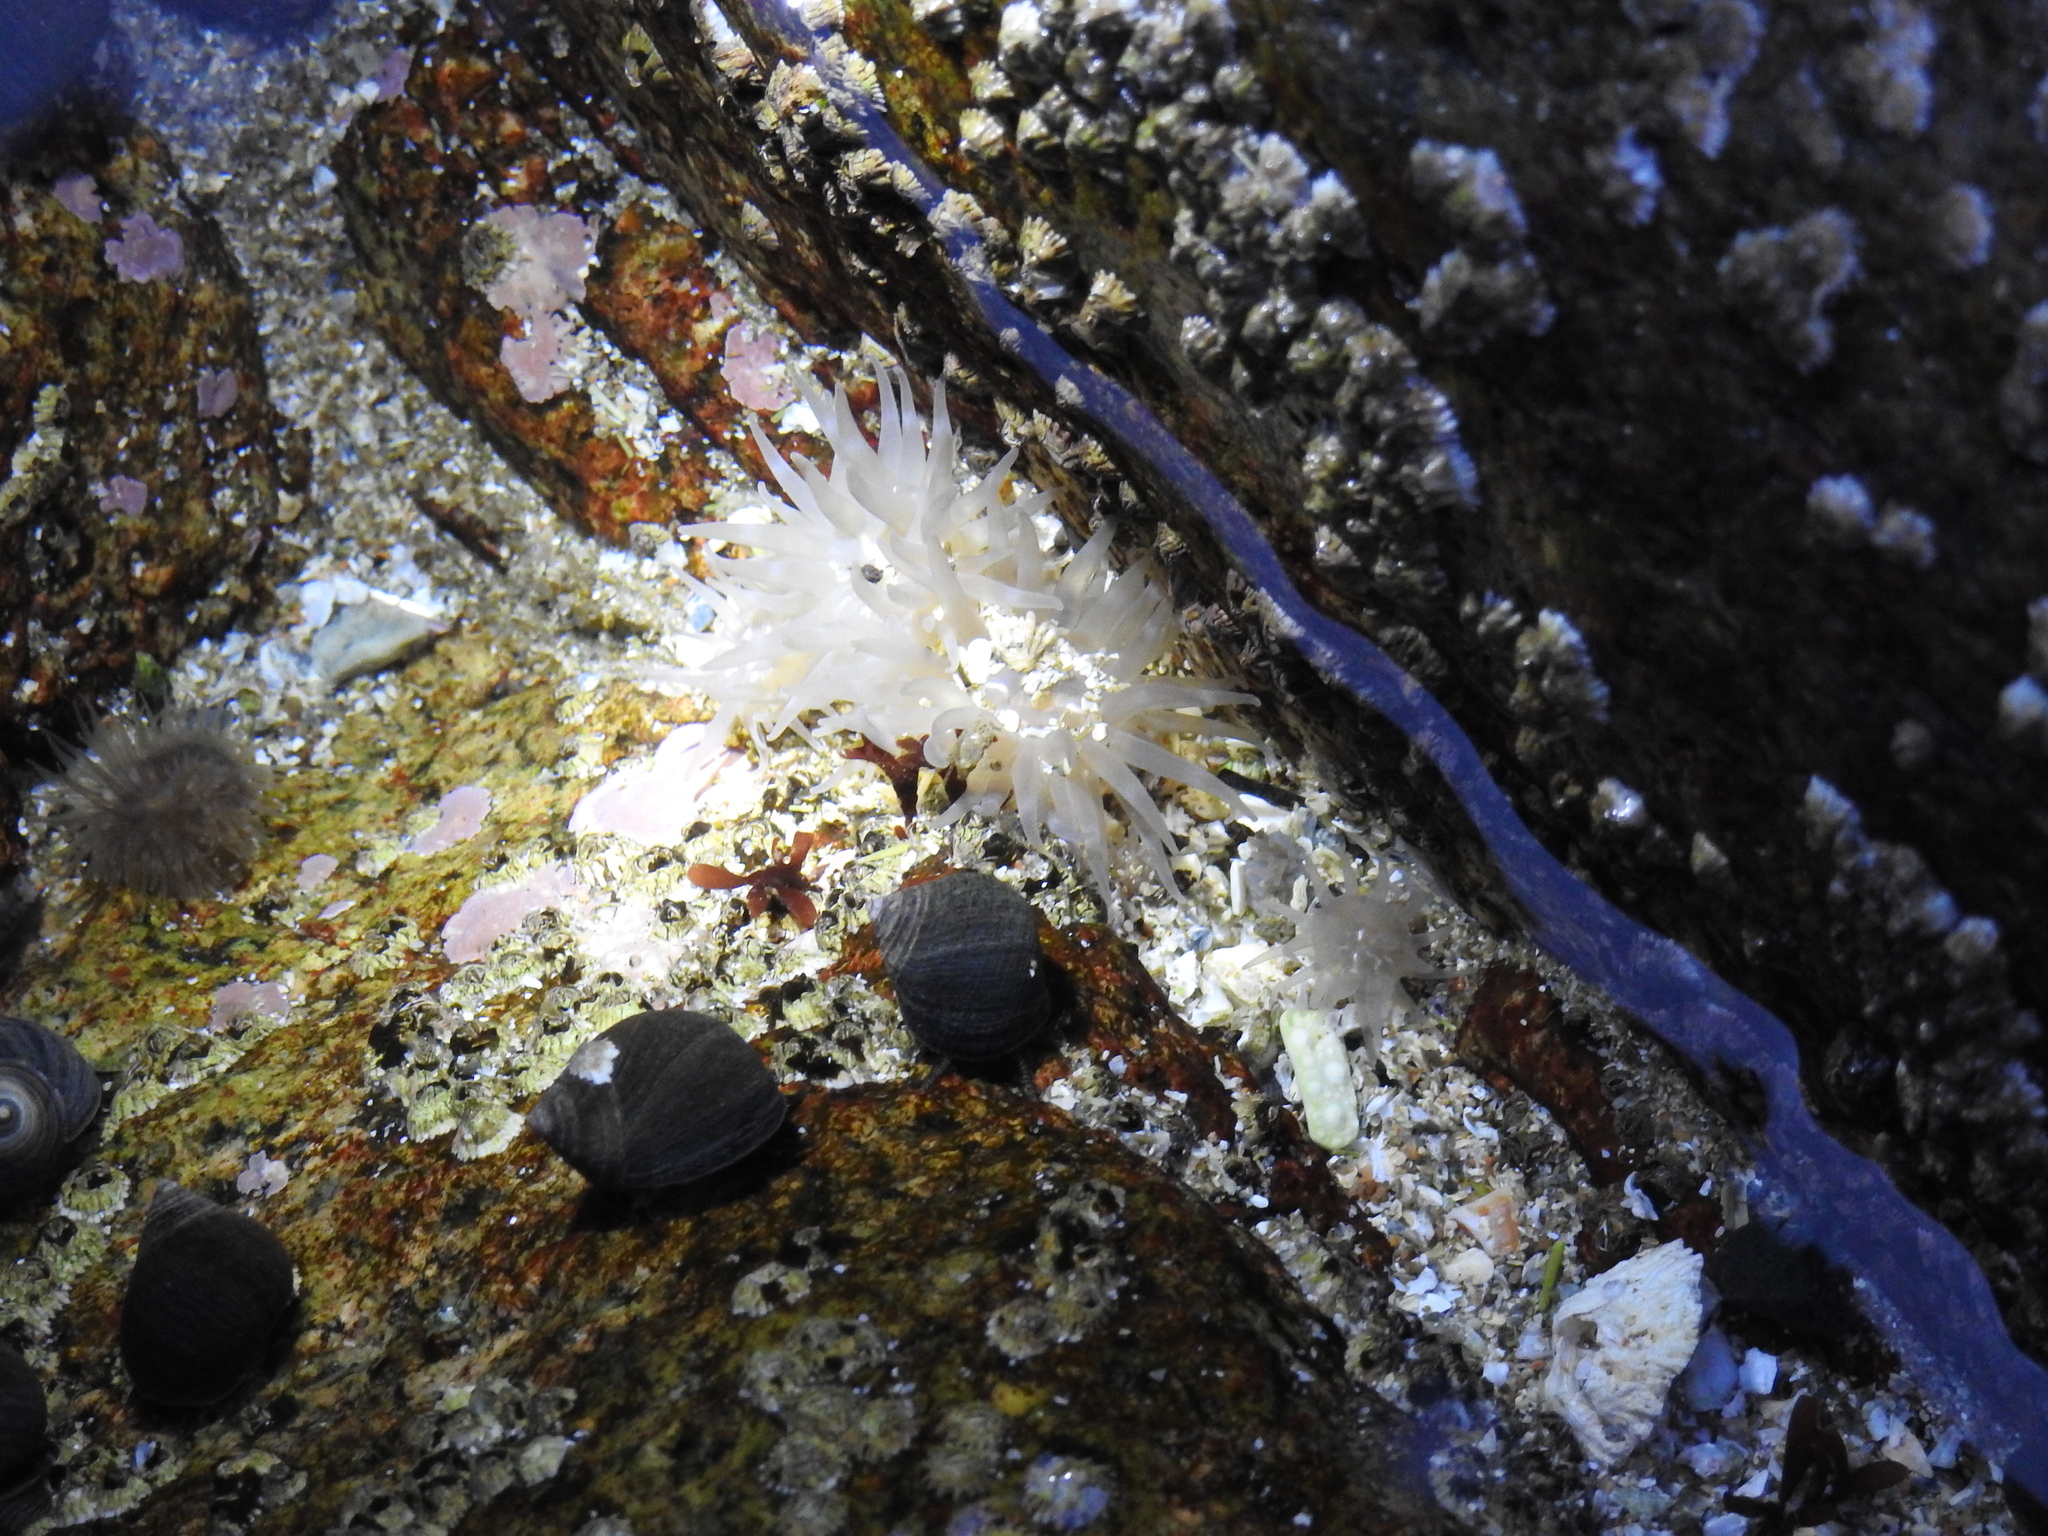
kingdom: Animalia
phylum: Cnidaria
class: Anthozoa
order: Actiniaria
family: Actiniidae
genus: Aulactinia
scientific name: Aulactinia stella
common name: Silver-spotted sea anemone
